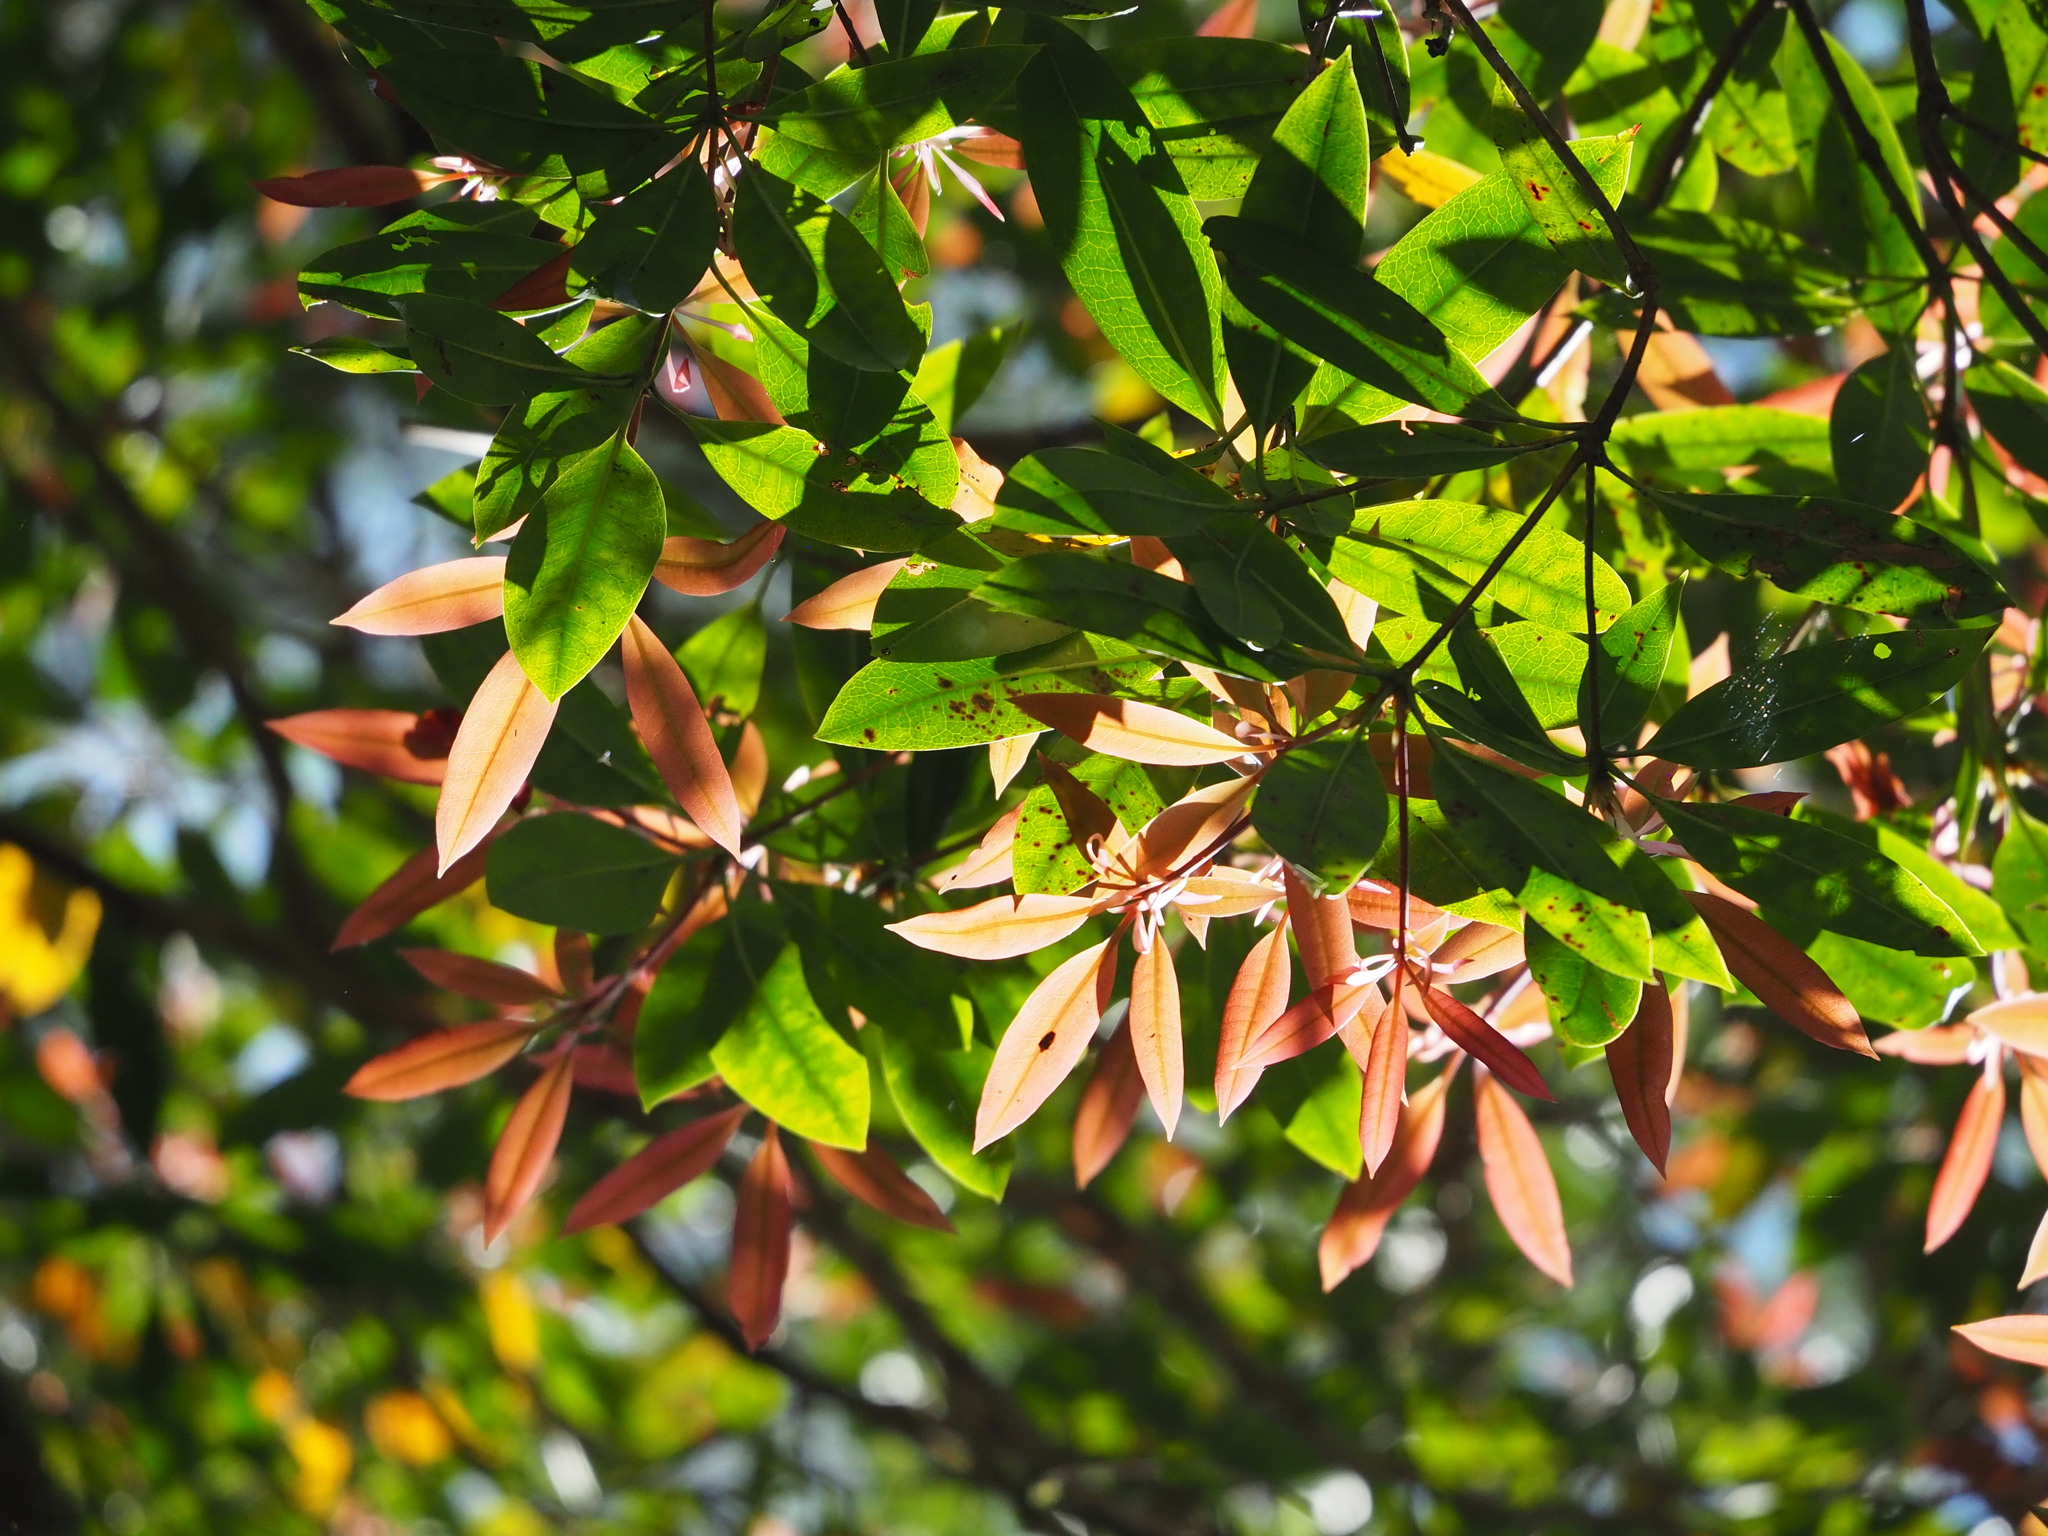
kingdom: Plantae
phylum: Tracheophyta
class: Magnoliopsida
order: Ericales
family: Ericaceae
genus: Rhododendron
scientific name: Rhododendron latoucheae
